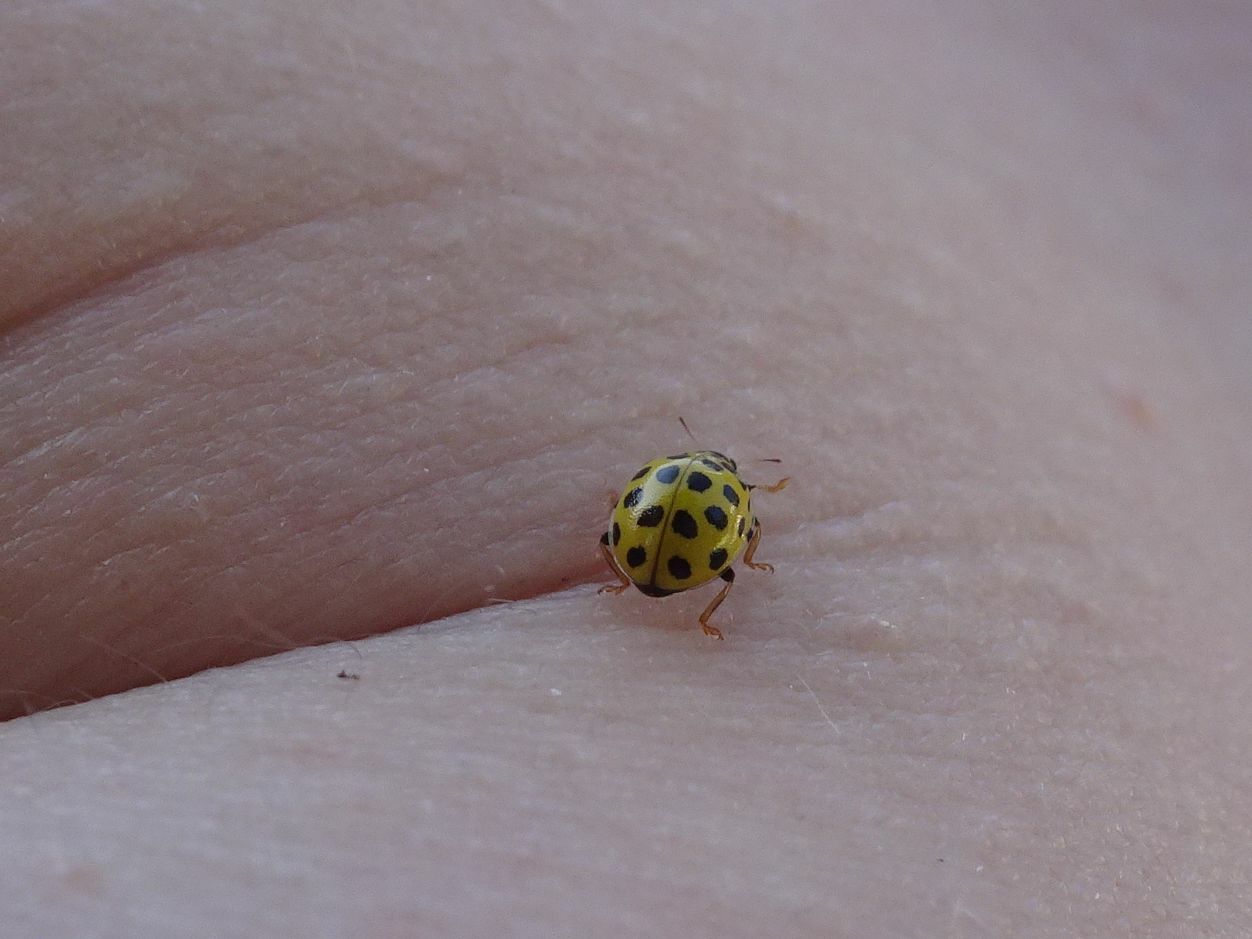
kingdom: Animalia
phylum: Arthropoda
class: Insecta
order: Coleoptera
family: Coccinellidae
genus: Psyllobora
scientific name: Psyllobora vigintiduopunctata
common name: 22-spot ladybird
